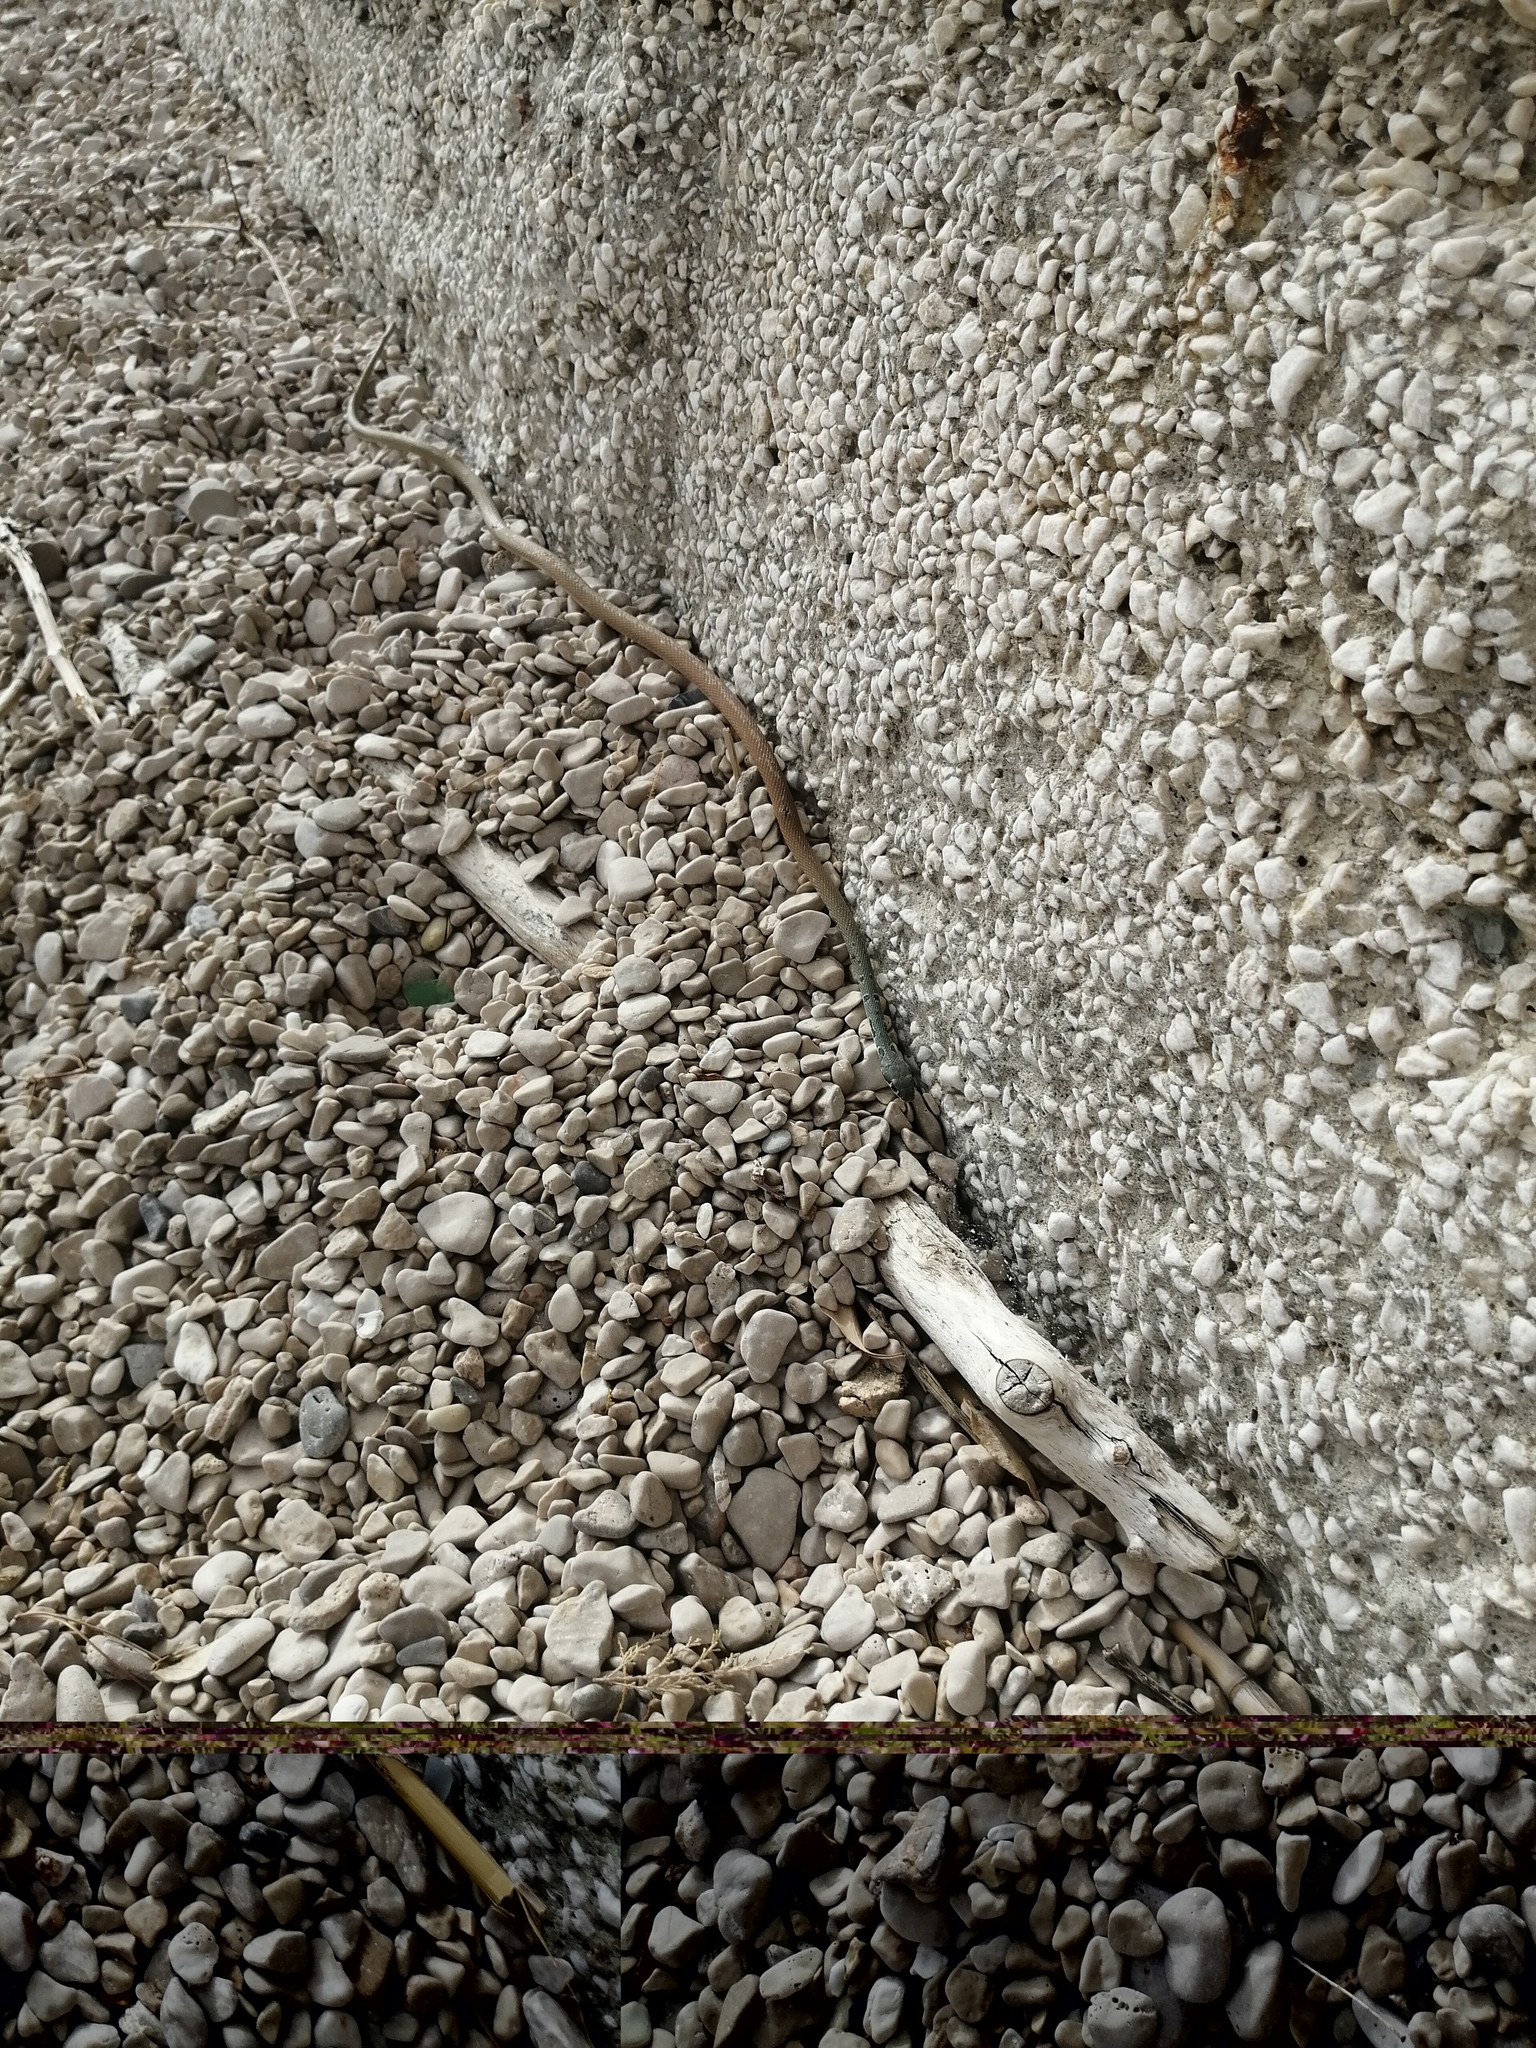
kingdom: Animalia
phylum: Chordata
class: Squamata
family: Colubridae
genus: Platyceps
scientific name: Platyceps najadum
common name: Dahl's whip snake
